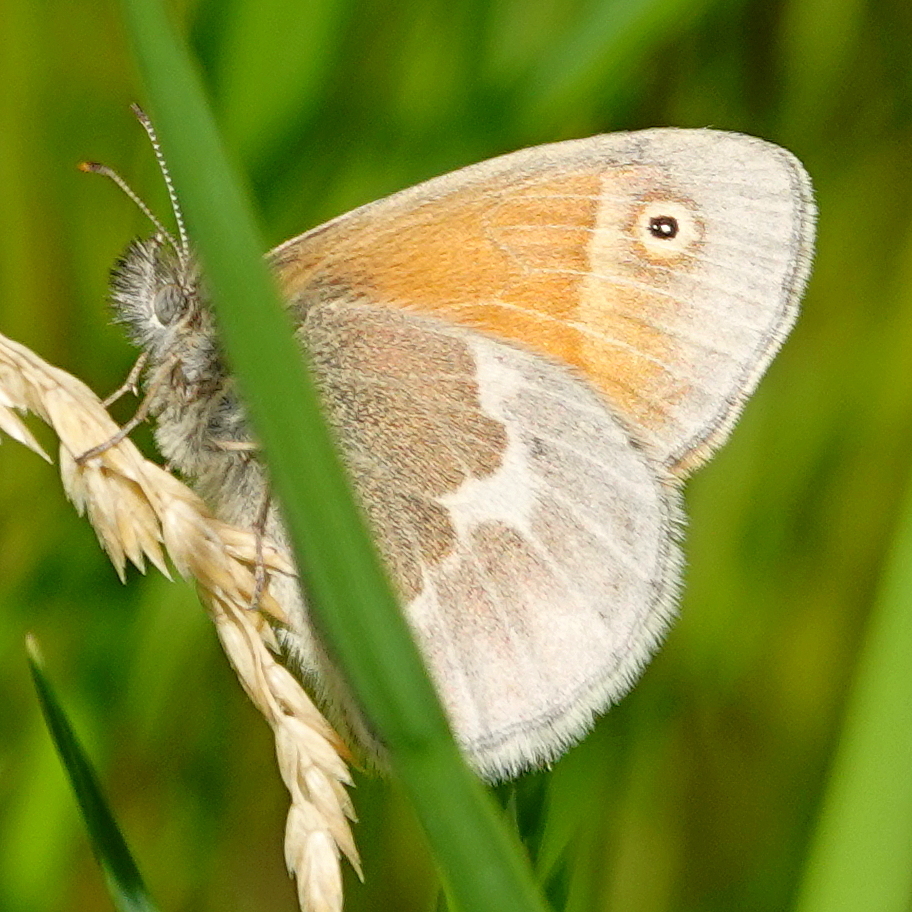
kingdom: Animalia
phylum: Arthropoda
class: Insecta
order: Lepidoptera
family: Nymphalidae
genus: Coenonympha
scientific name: Coenonympha california
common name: Common ringlet
